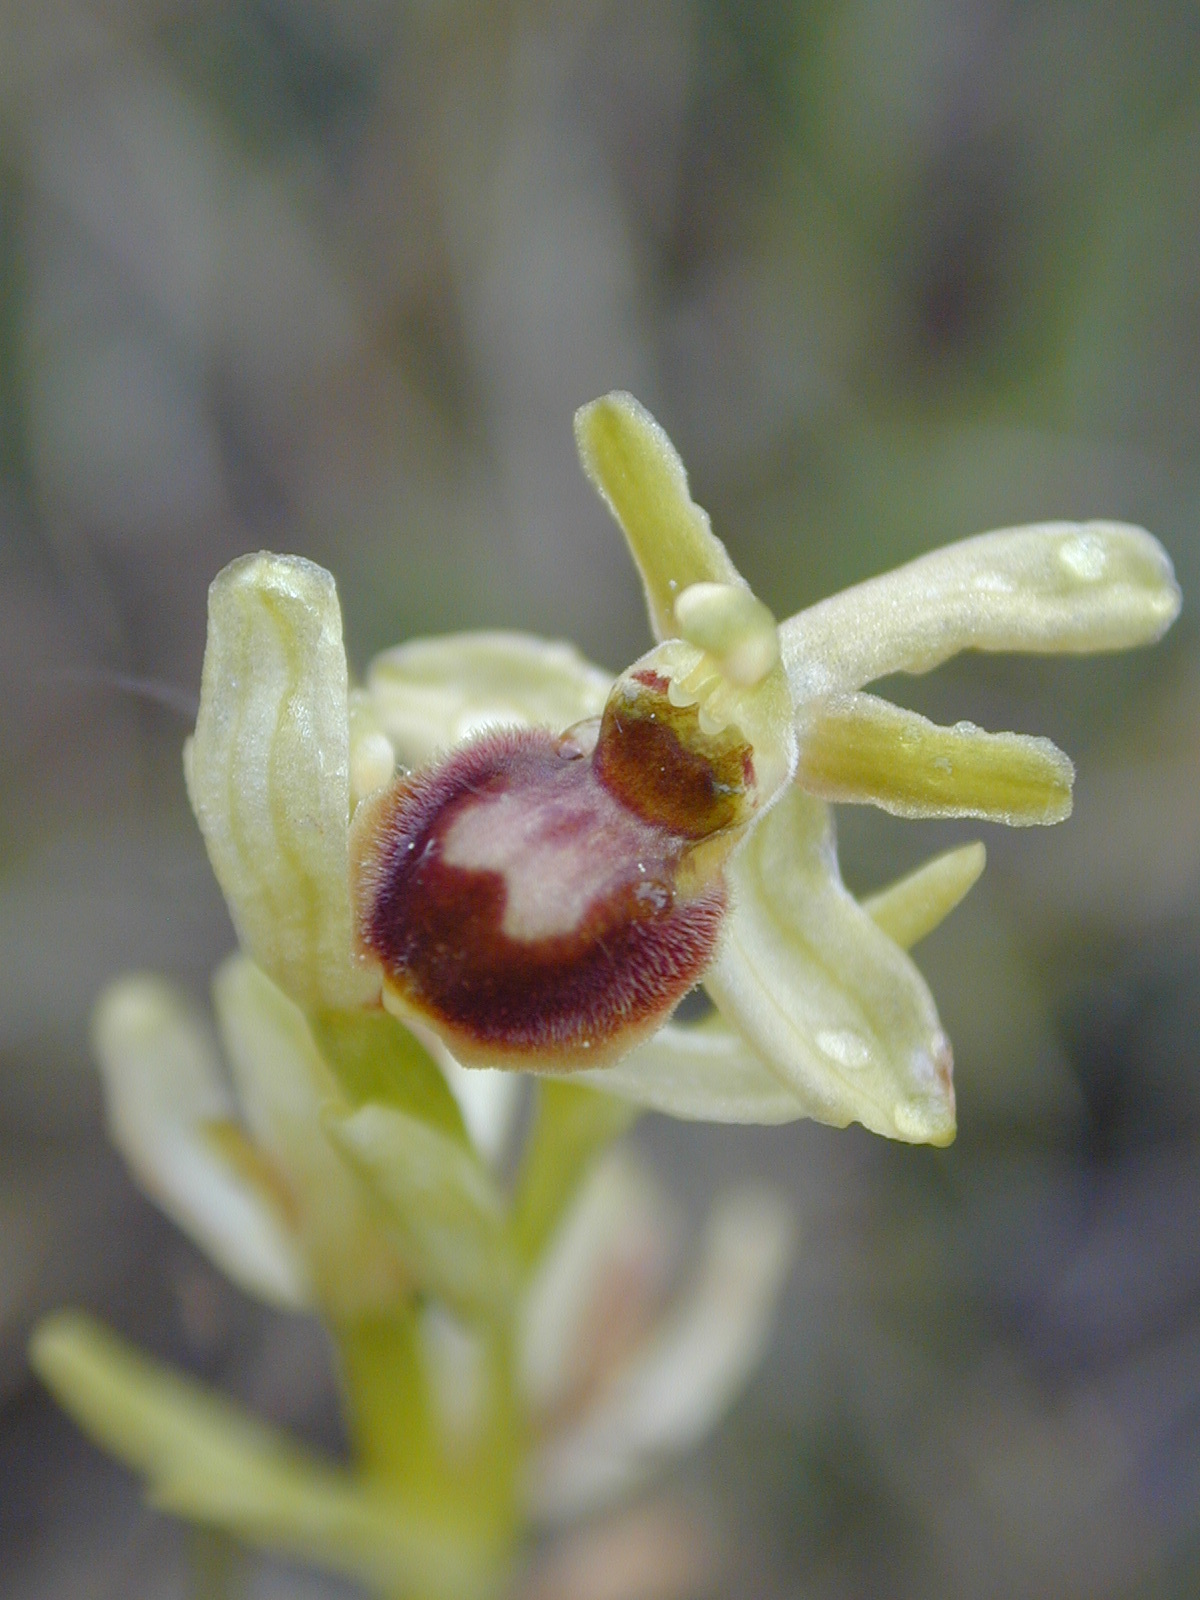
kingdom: Plantae
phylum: Tracheophyta
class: Liliopsida
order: Asparagales
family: Orchidaceae
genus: Ophrys
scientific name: Ophrys sphegodes
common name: Early spider-orchid
